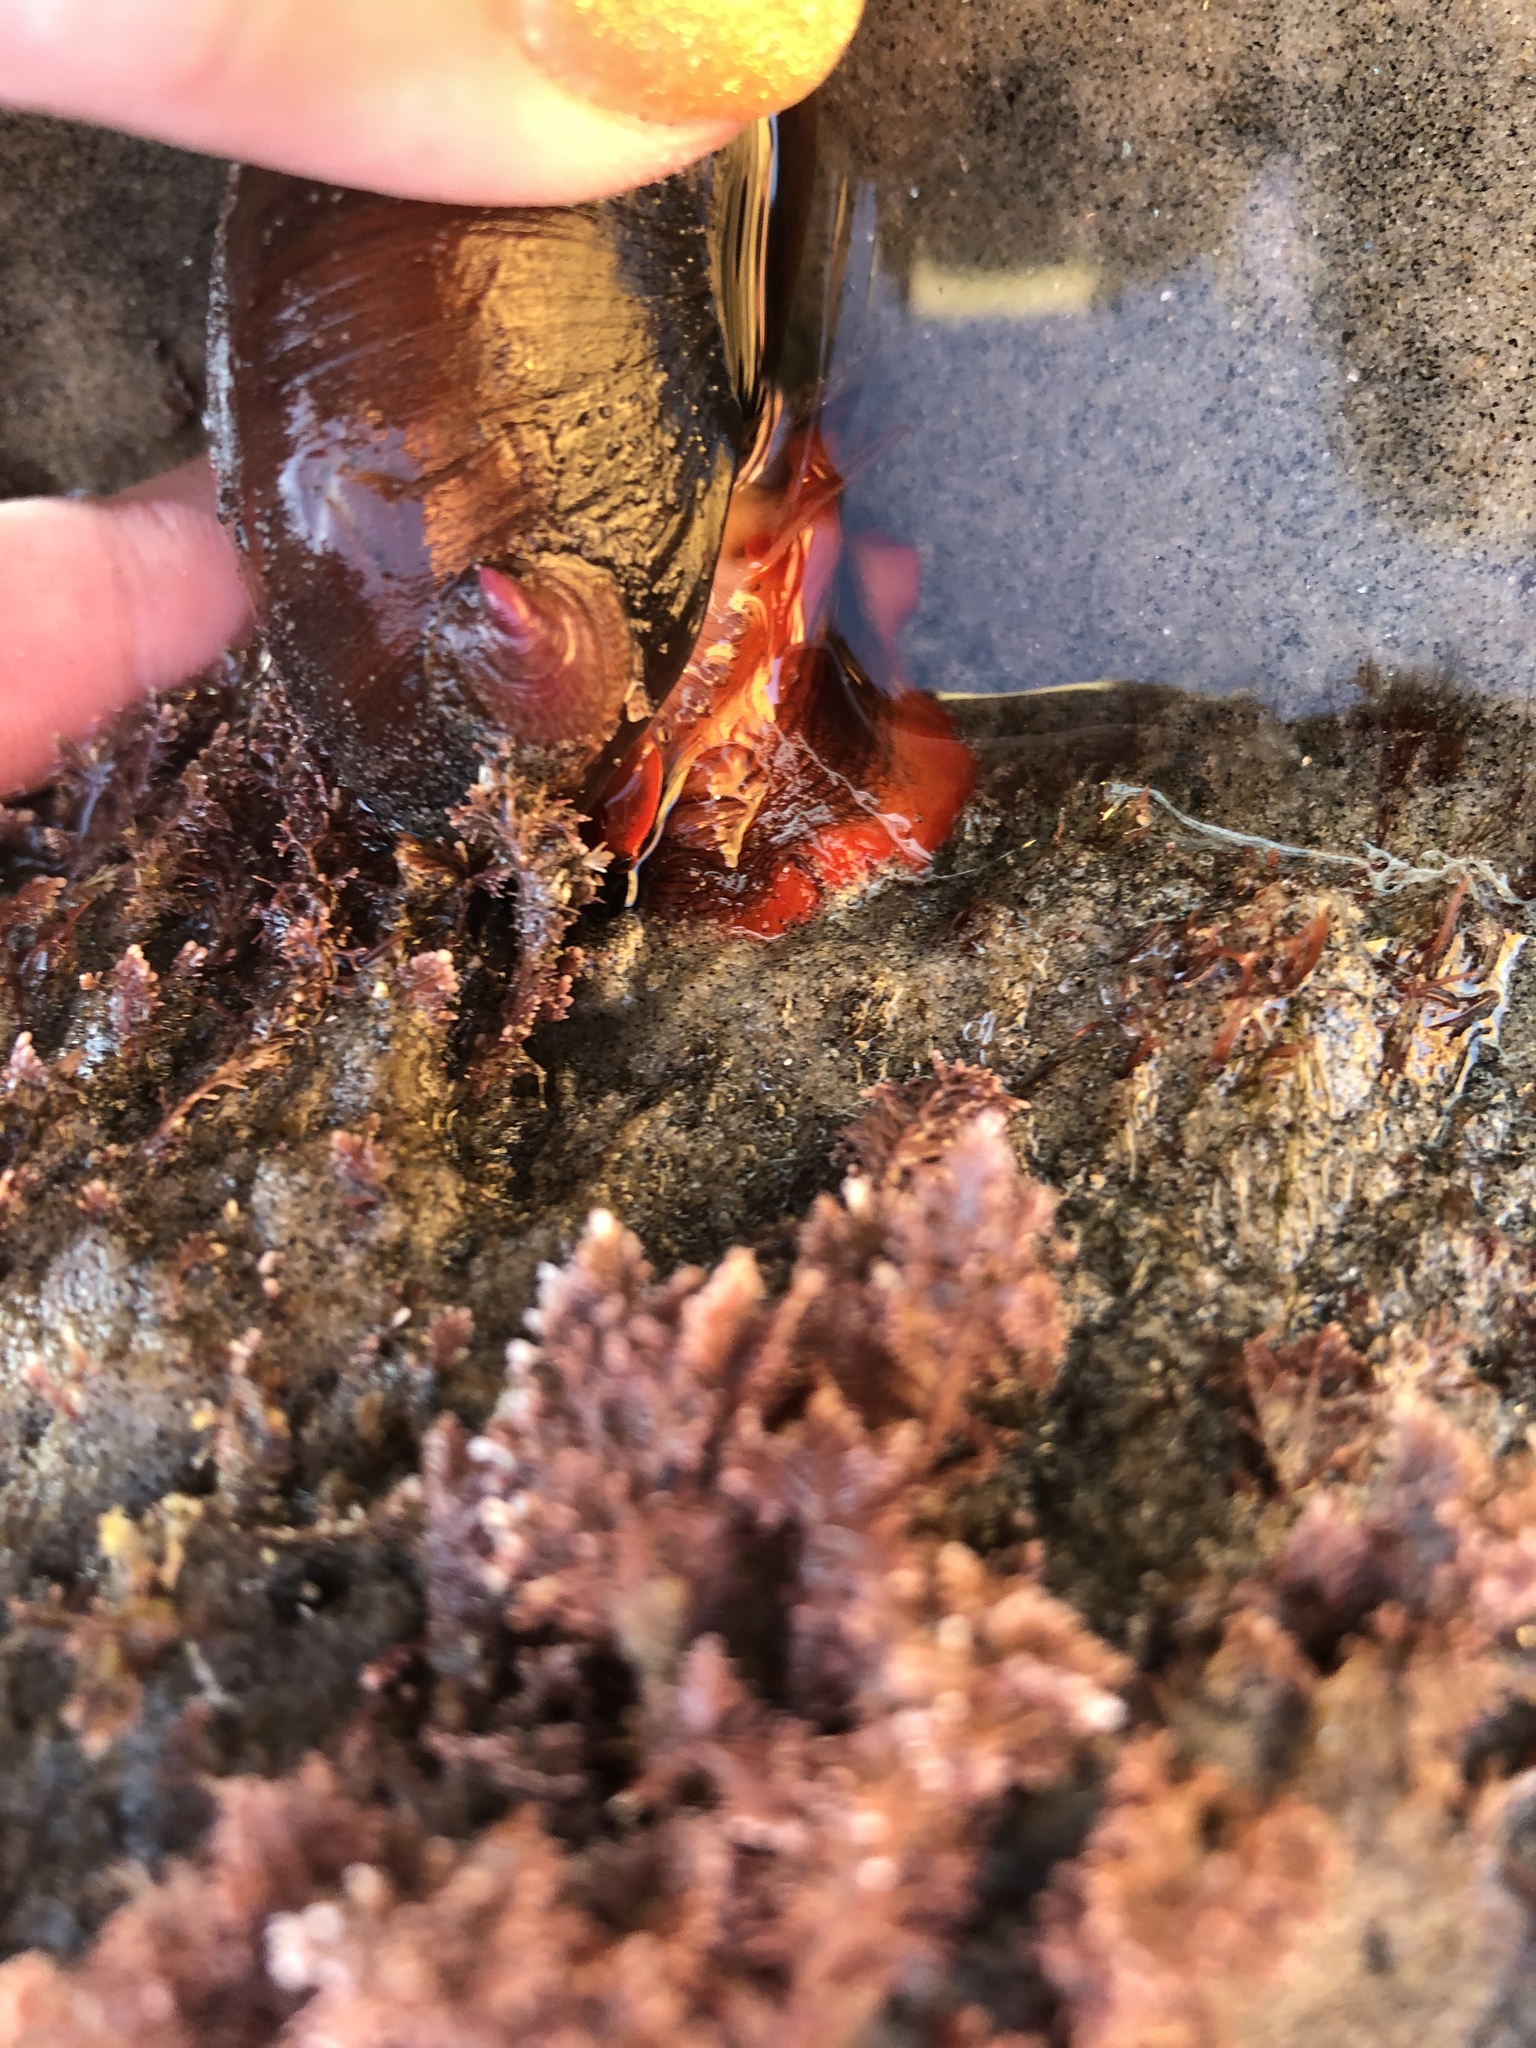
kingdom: Animalia
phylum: Mollusca
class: Gastropoda
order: Trochida
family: Tegulidae
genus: Norrisia
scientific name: Norrisia norrisii
